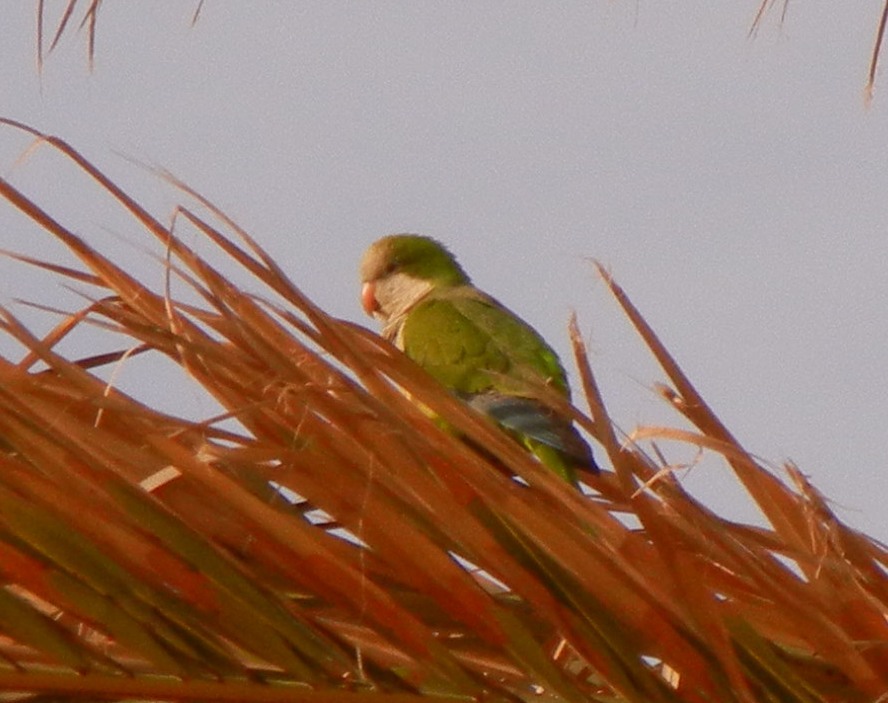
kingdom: Animalia
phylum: Chordata
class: Aves
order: Psittaciformes
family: Psittacidae
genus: Myiopsitta
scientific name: Myiopsitta monachus
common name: Monk parakeet
